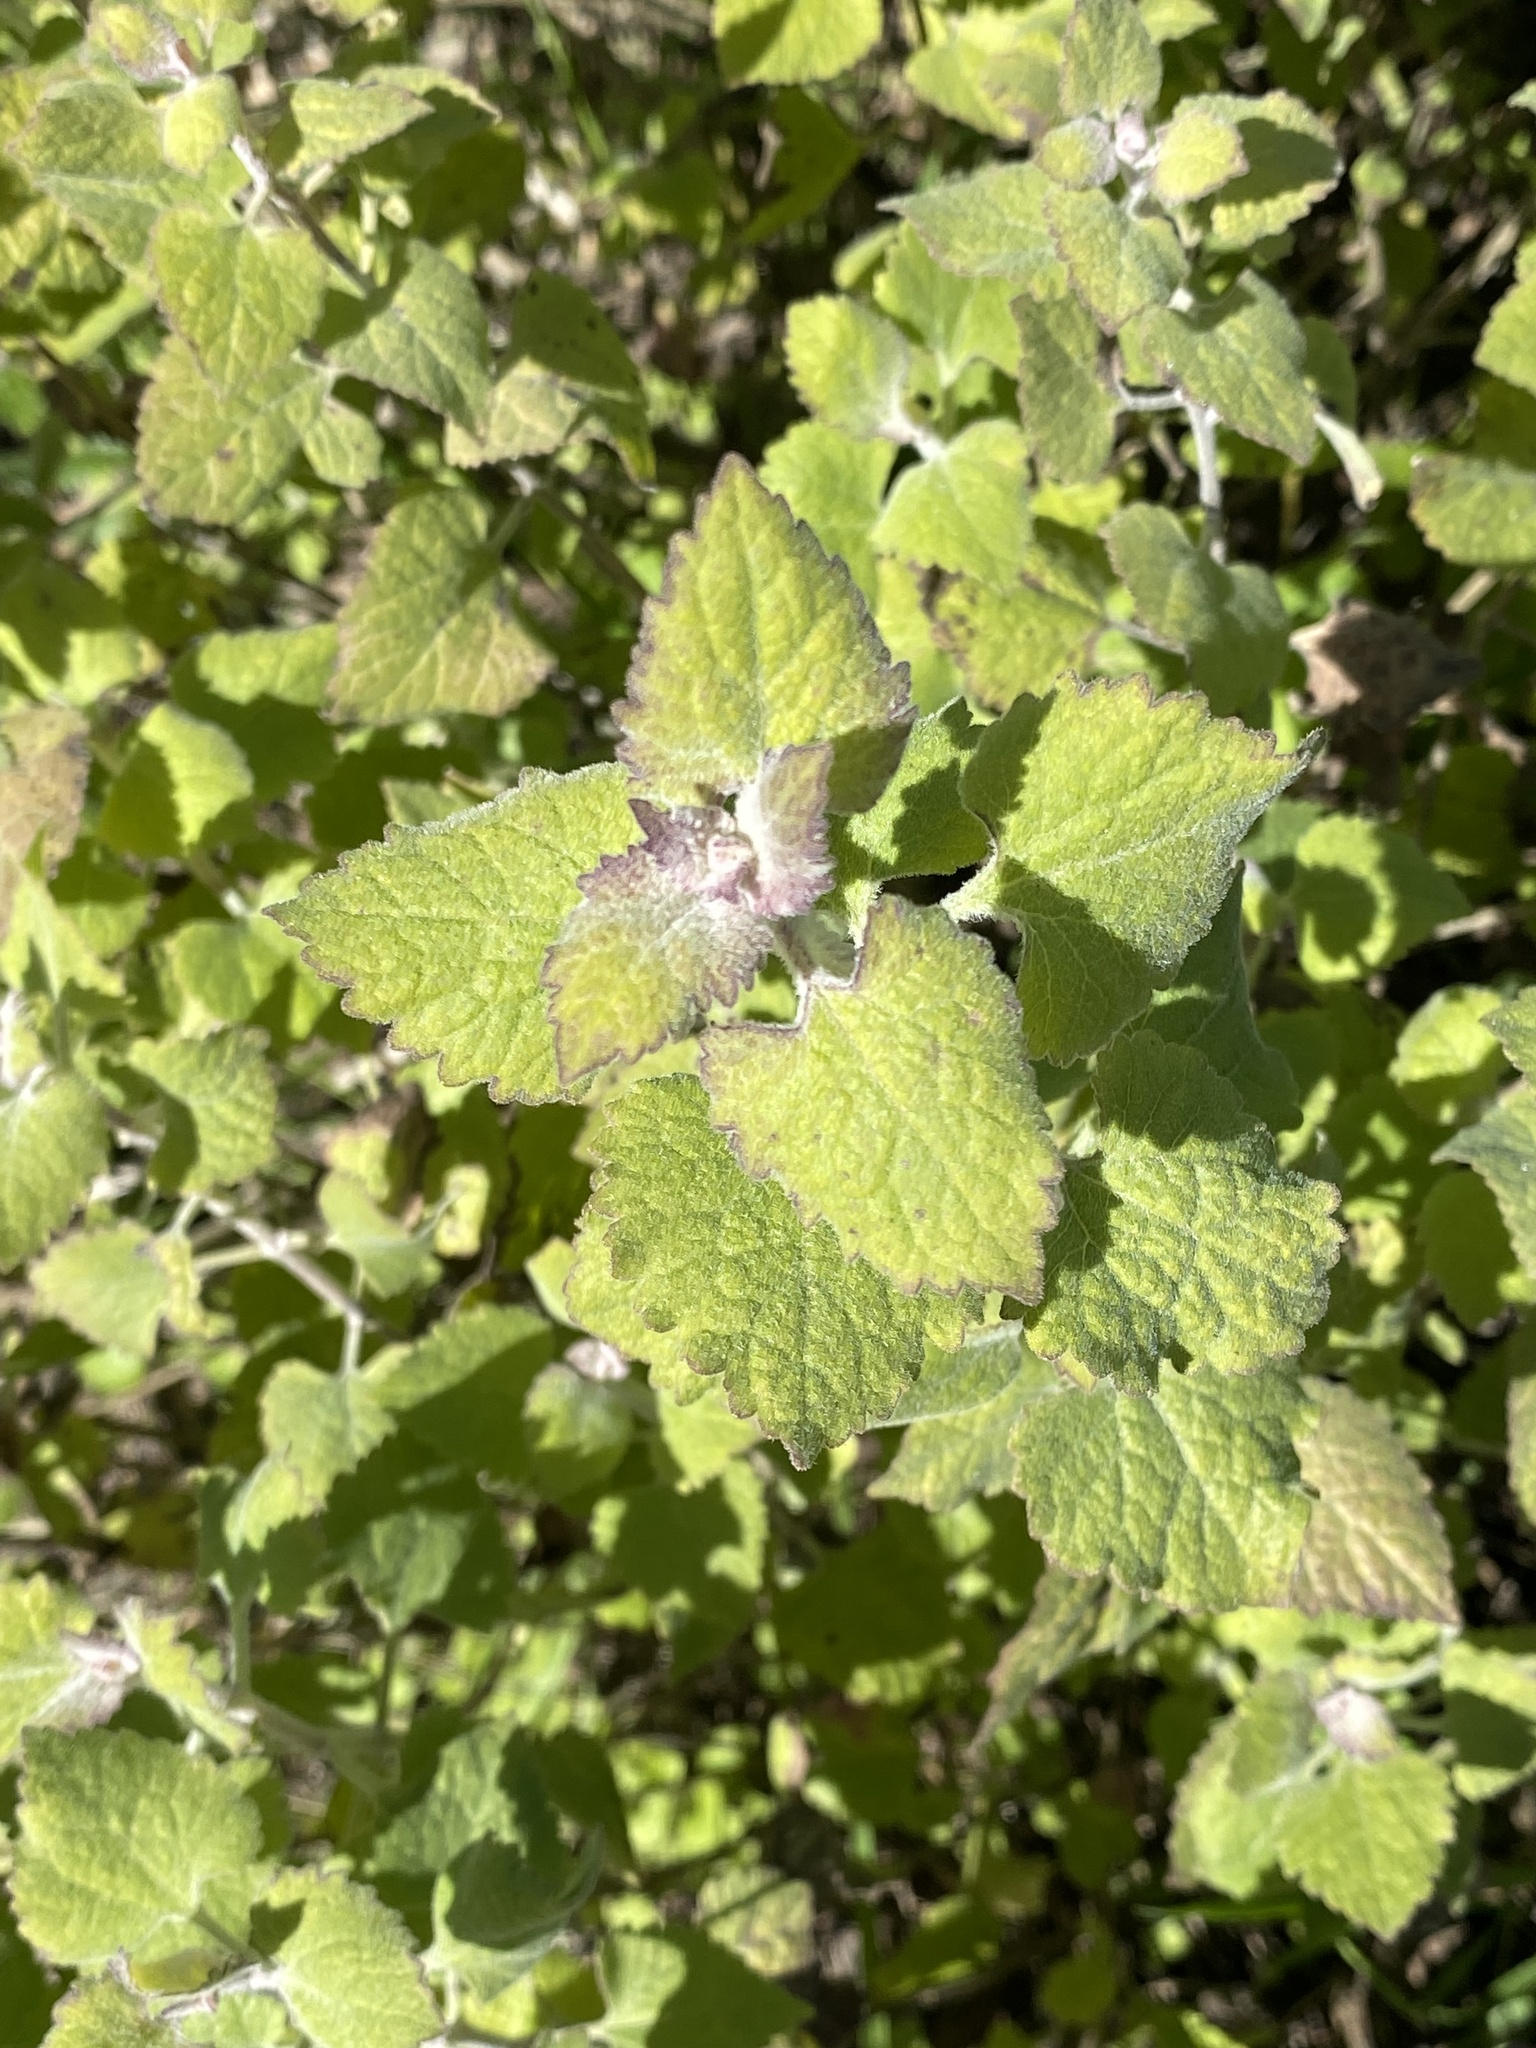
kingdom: Plantae
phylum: Tracheophyta
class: Magnoliopsida
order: Asterales
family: Asteraceae
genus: Brickellia
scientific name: Brickellia californica
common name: California brickellbush
